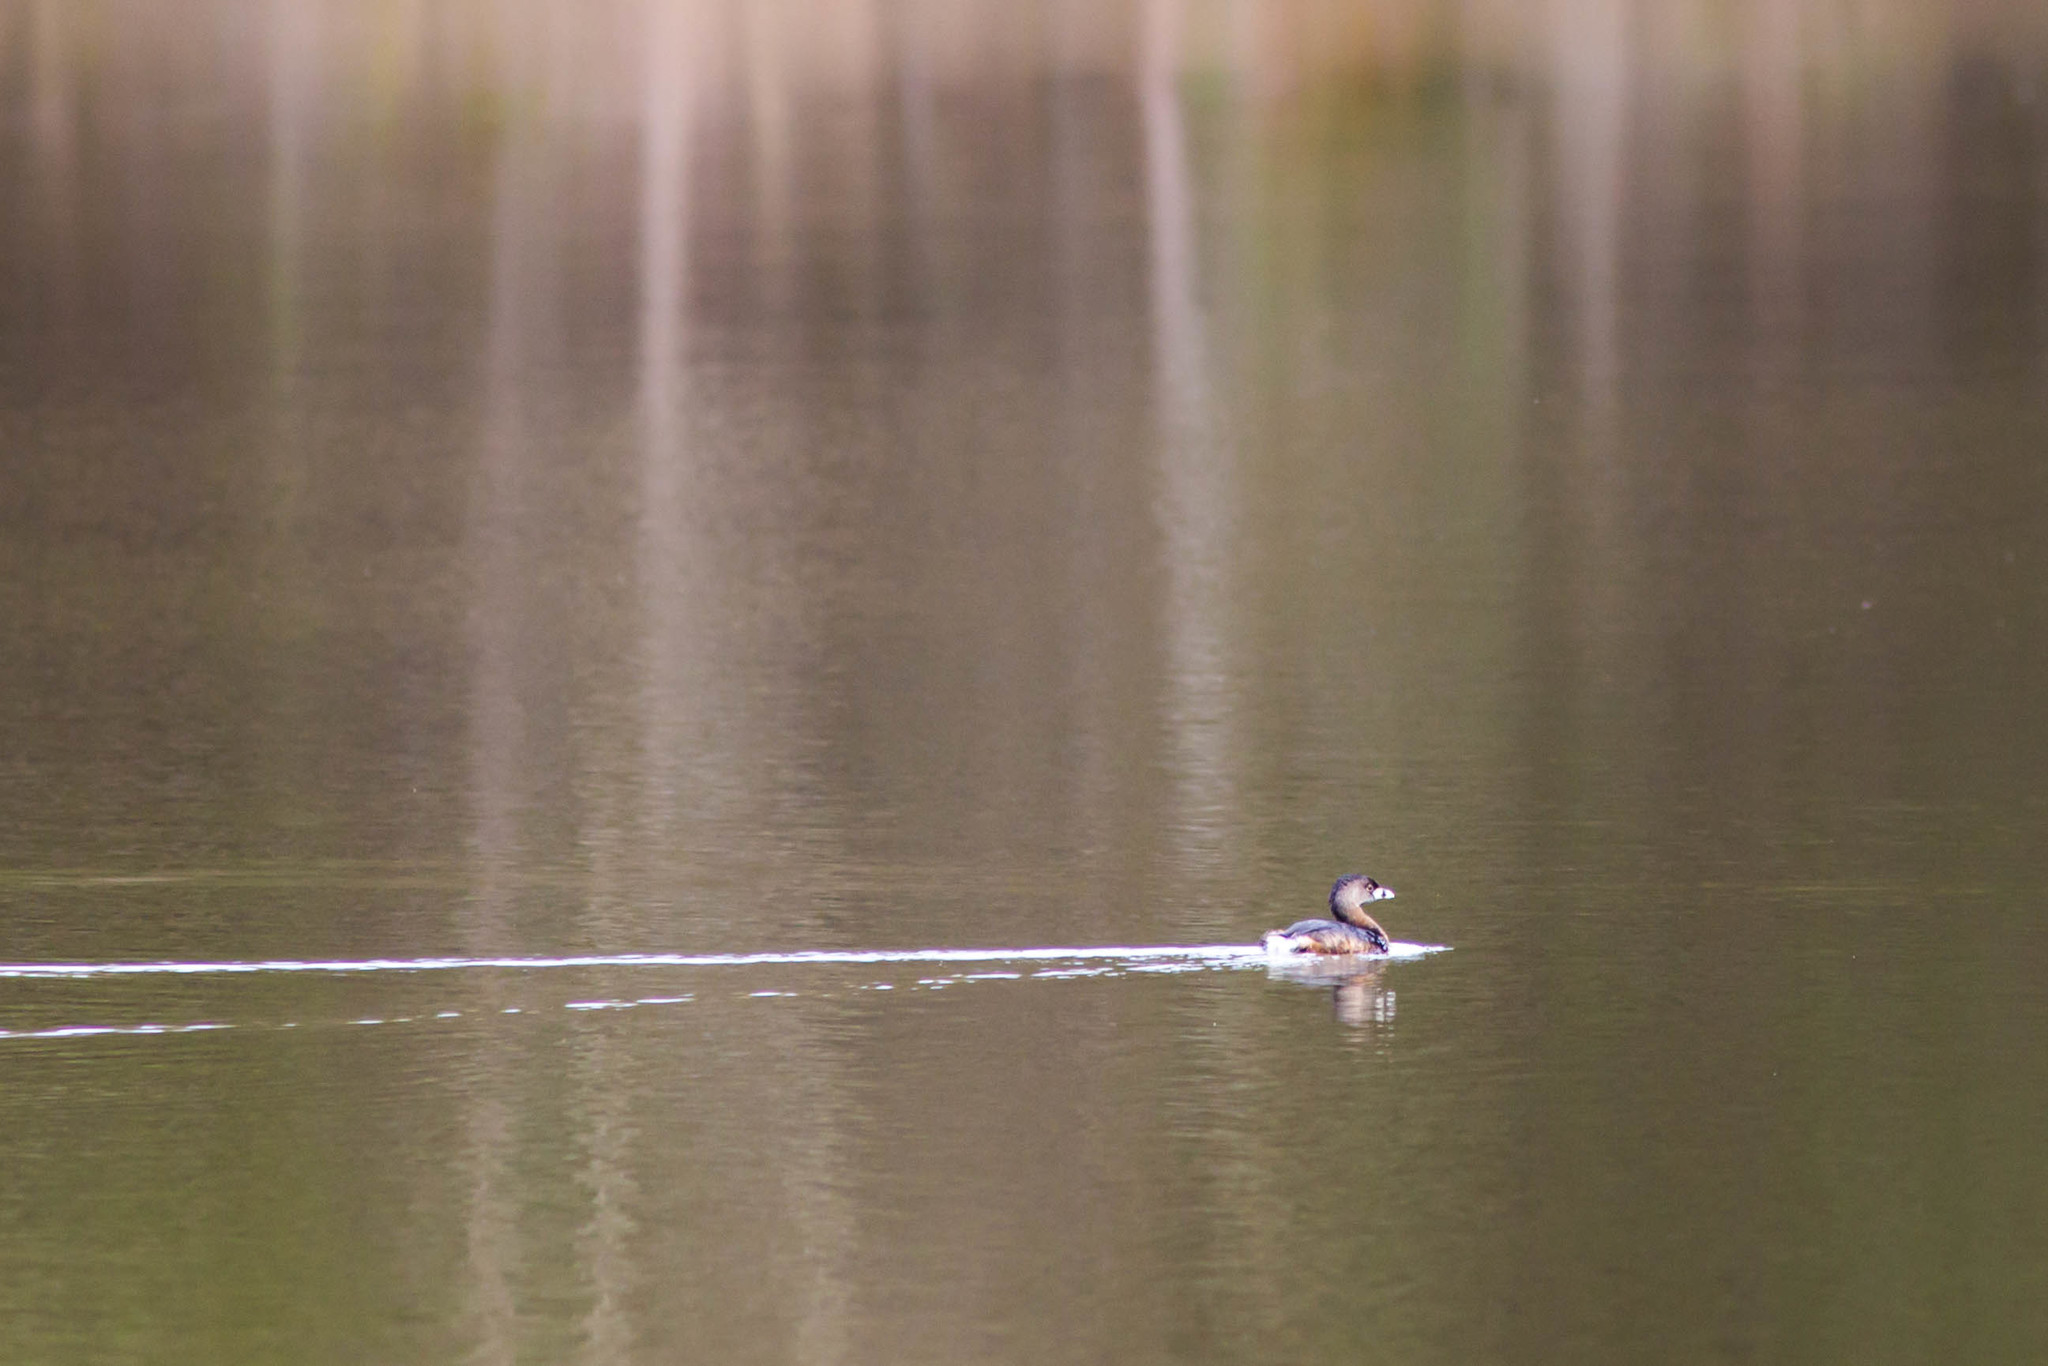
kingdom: Animalia
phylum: Chordata
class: Aves
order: Podicipediformes
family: Podicipedidae
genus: Podilymbus
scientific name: Podilymbus podiceps
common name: Pied-billed grebe
